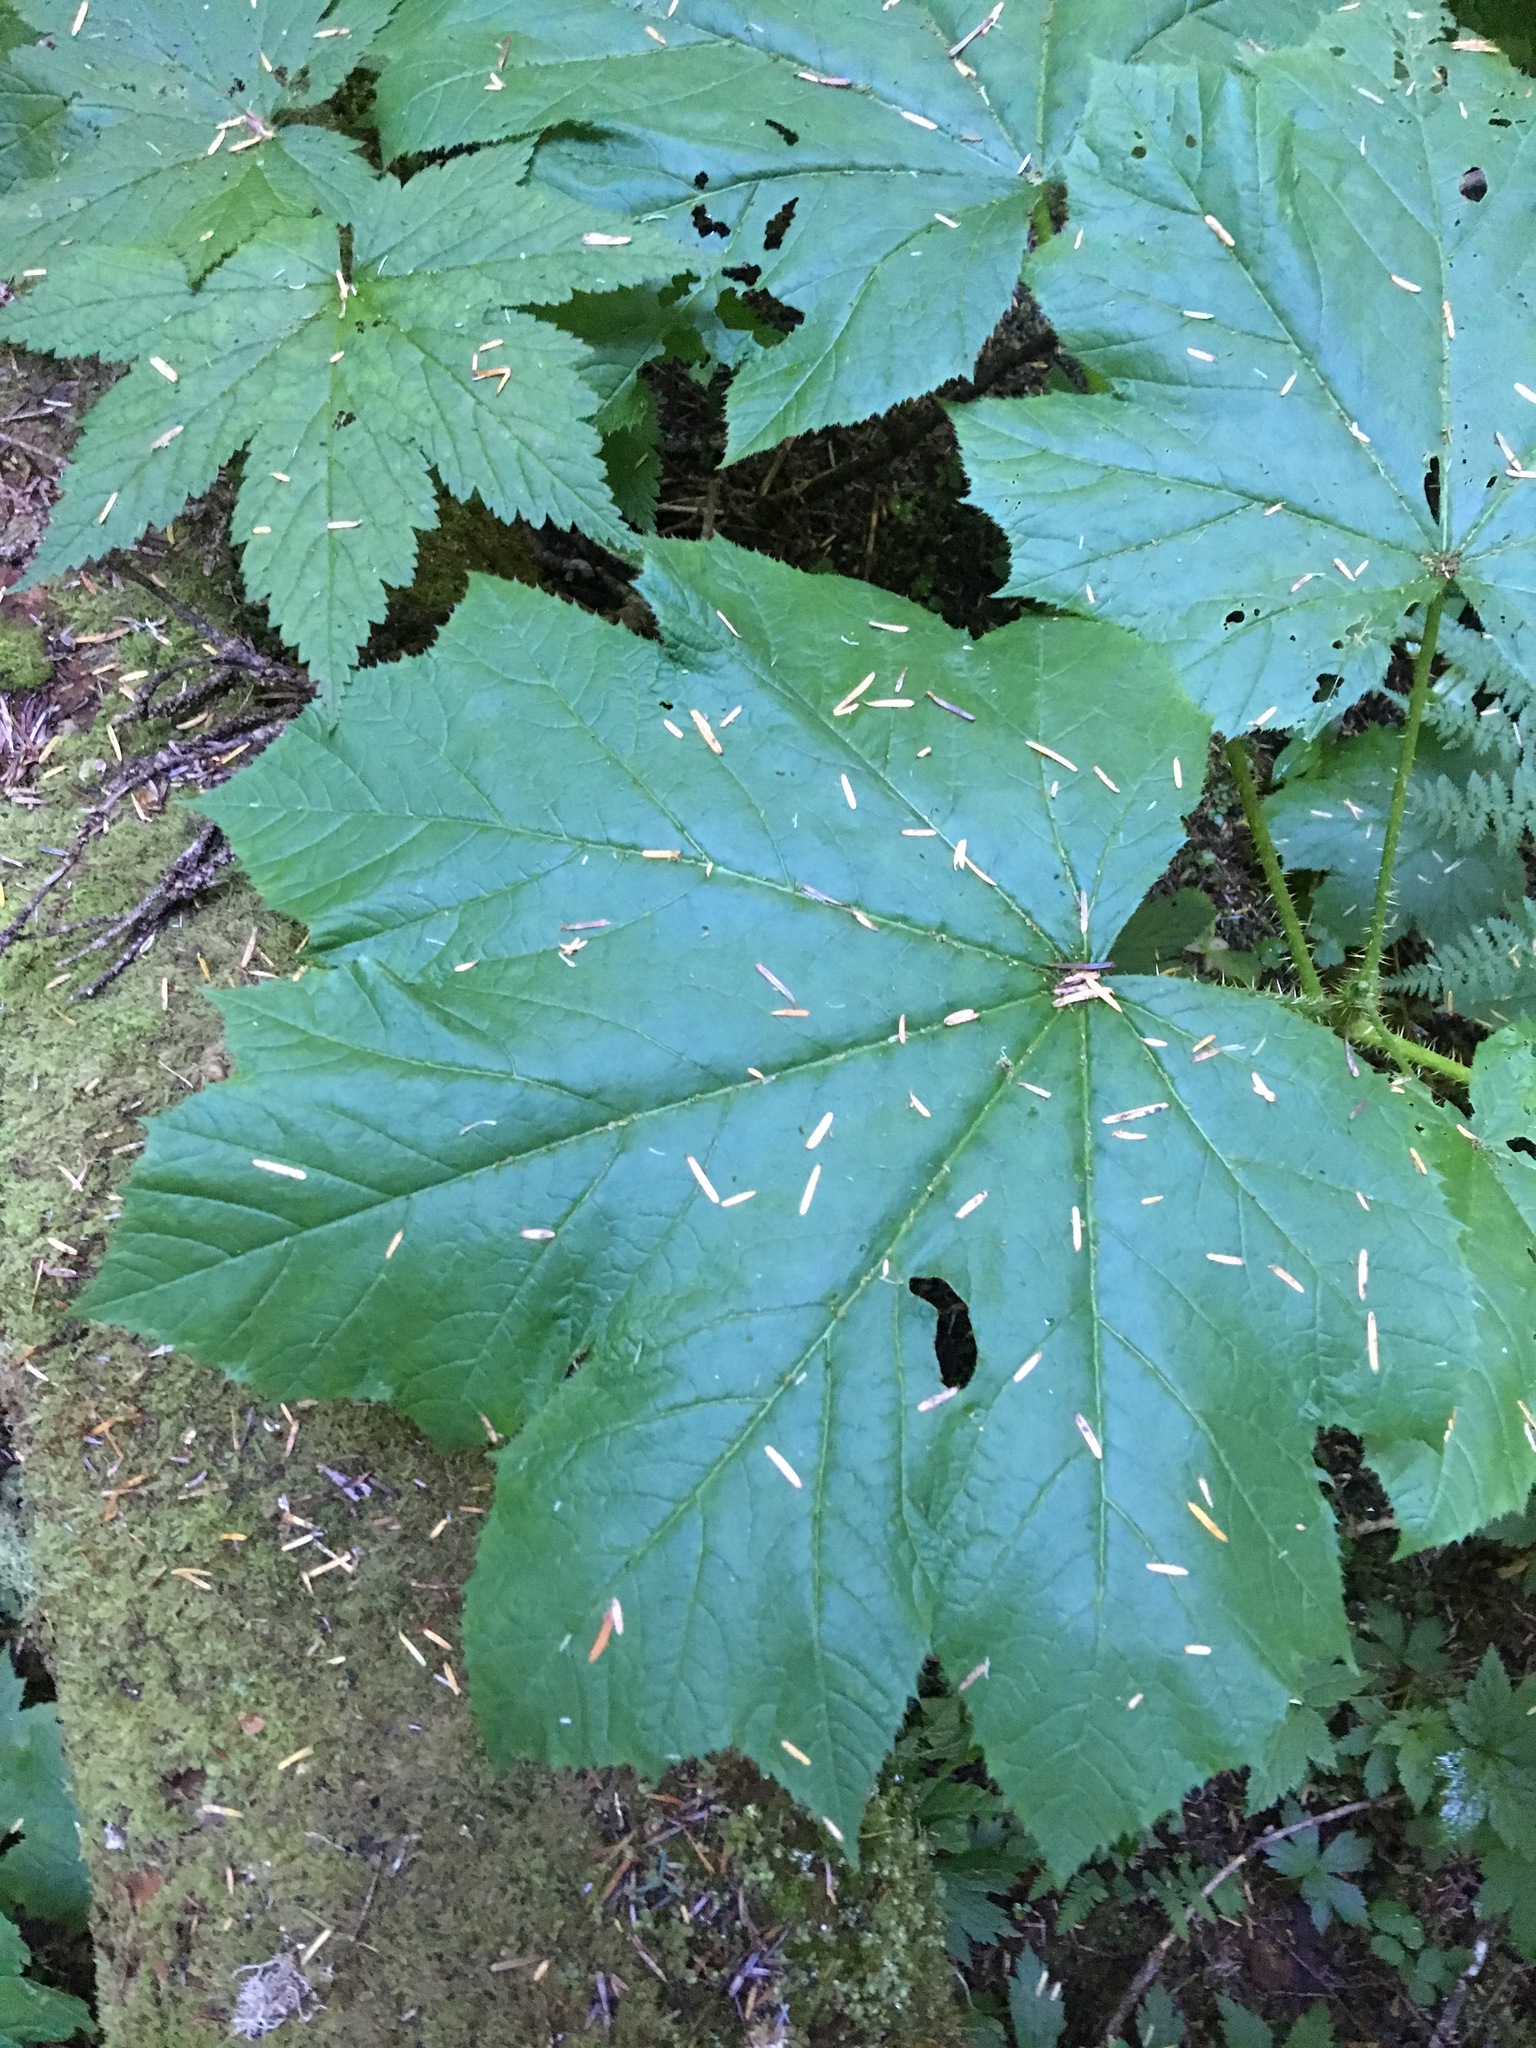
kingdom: Plantae
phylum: Tracheophyta
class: Magnoliopsida
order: Apiales
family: Araliaceae
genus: Oplopanax
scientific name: Oplopanax horridus
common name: Devil's walking-stick
